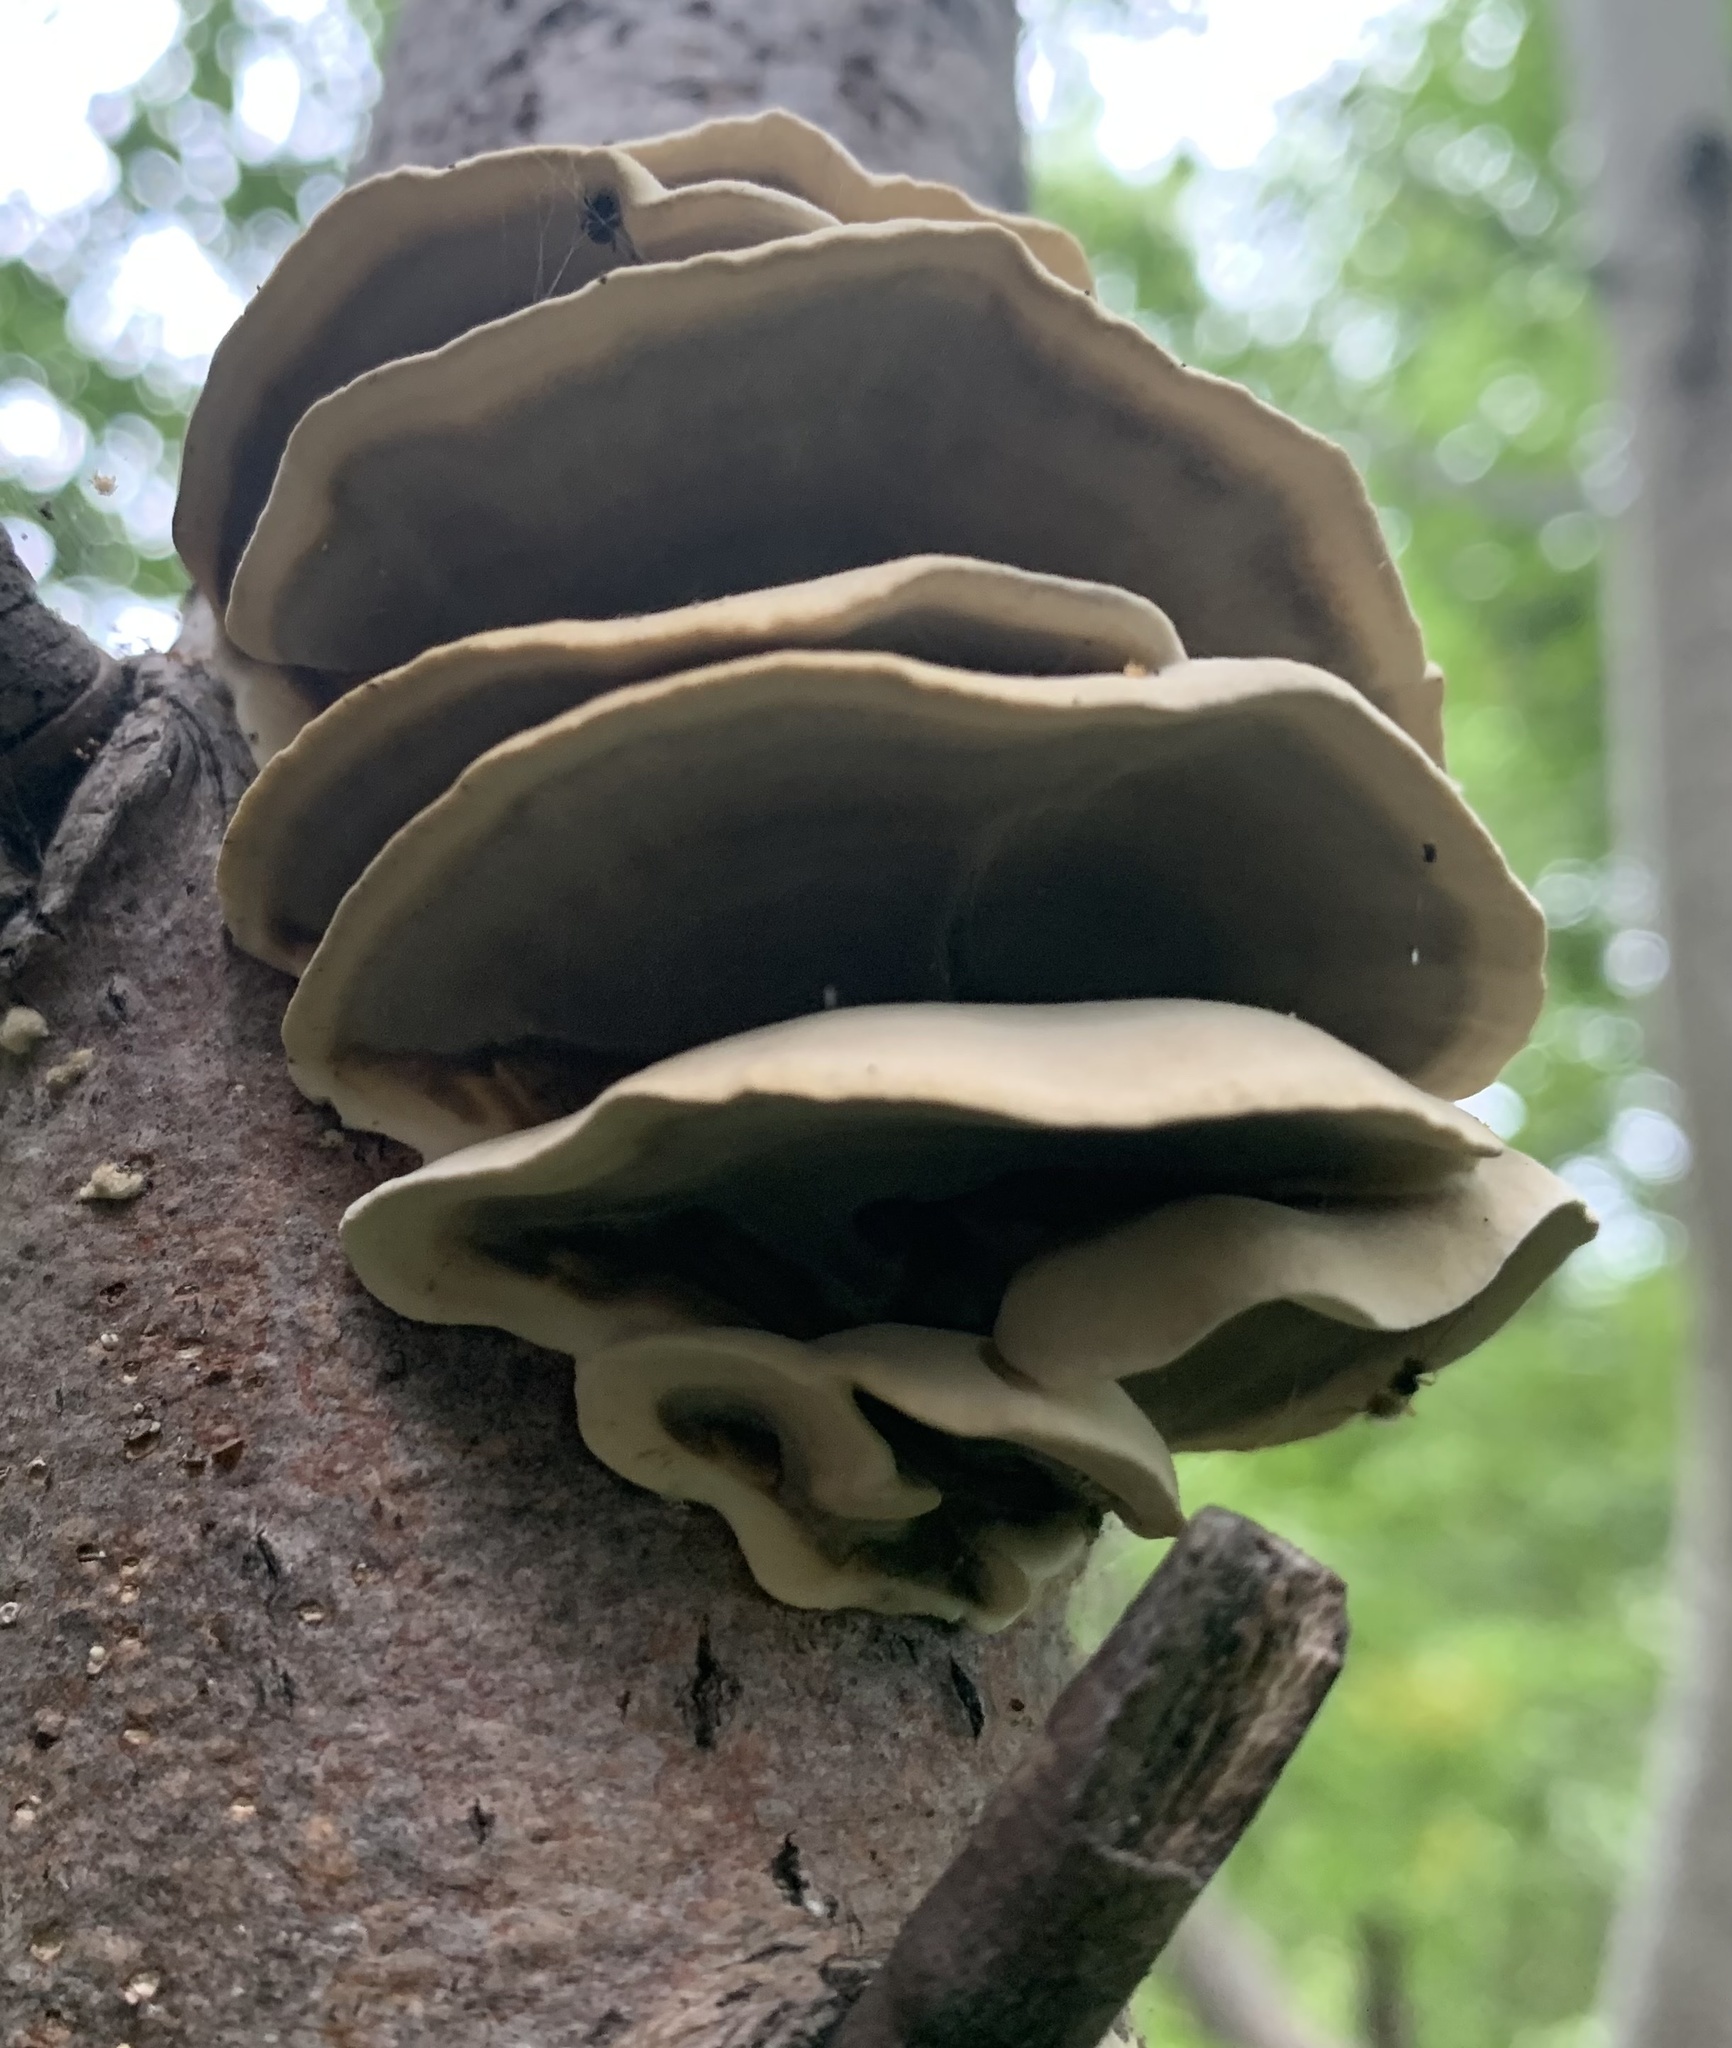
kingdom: Fungi
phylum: Basidiomycota
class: Agaricomycetes
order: Polyporales
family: Phanerochaetaceae
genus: Bjerkandera
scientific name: Bjerkandera adusta
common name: Smoky bracket
